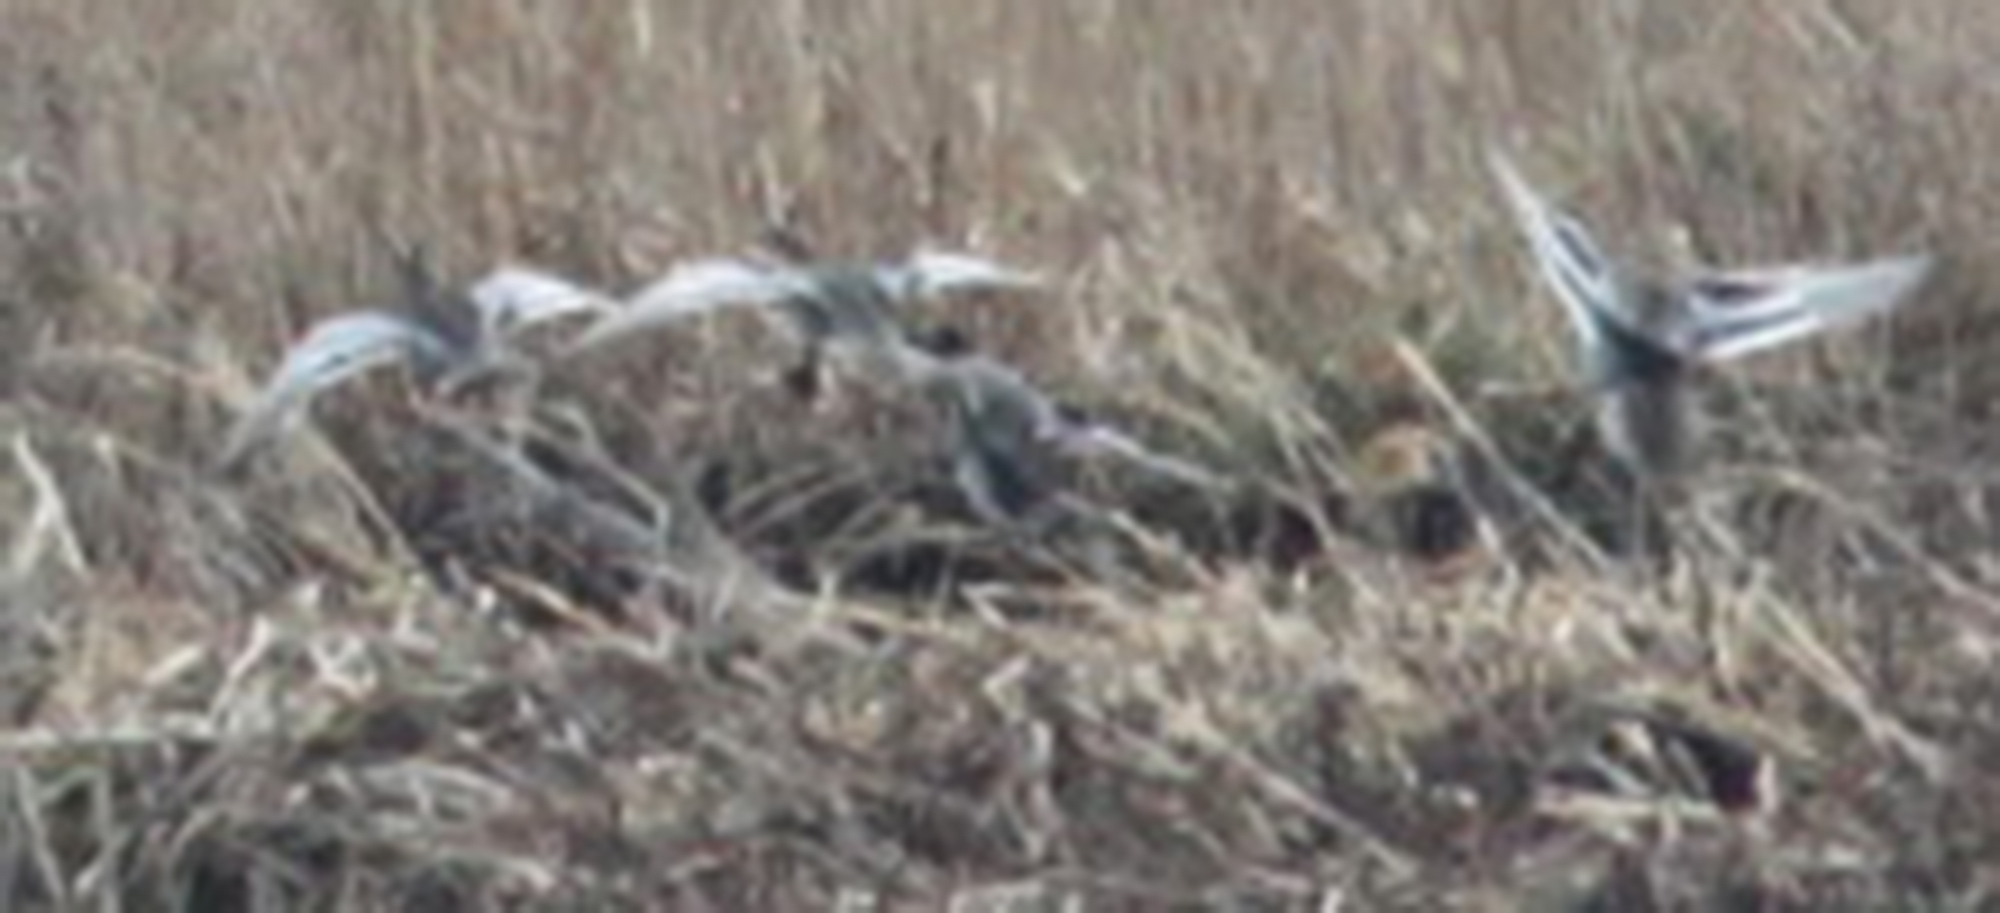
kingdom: Animalia
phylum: Chordata
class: Aves
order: Anseriformes
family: Anatidae
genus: Spatula
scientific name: Spatula querquedula
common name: Garganey
